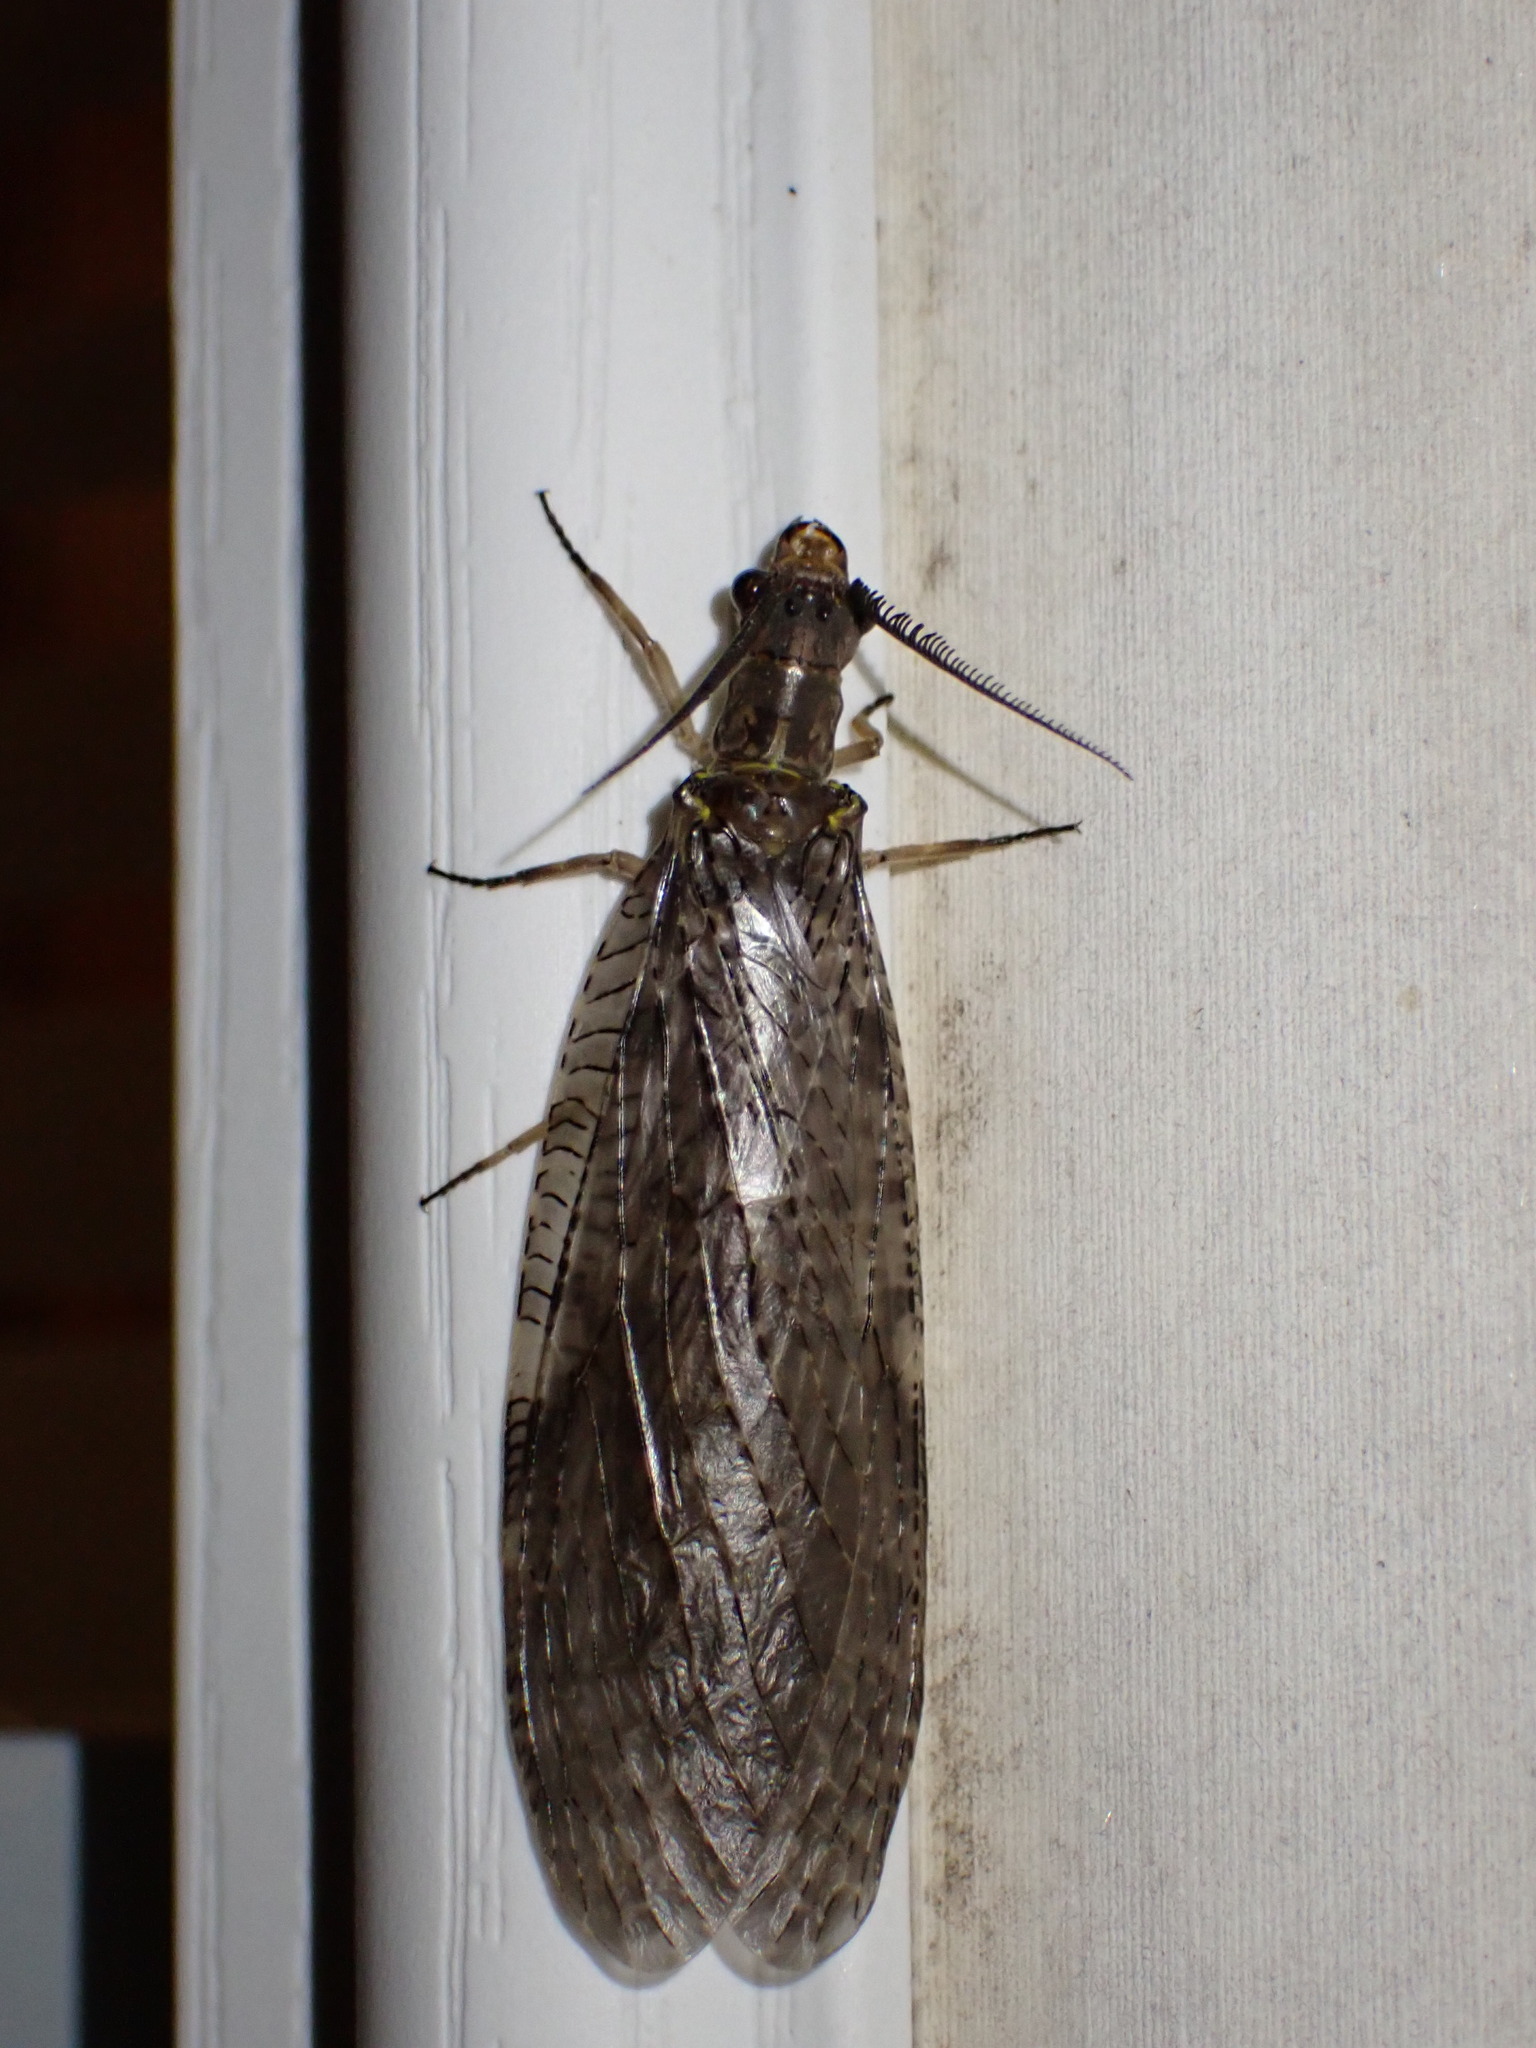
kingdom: Animalia
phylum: Arthropoda
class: Insecta
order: Megaloptera
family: Corydalidae
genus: Chauliodes
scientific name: Chauliodes pectinicornis
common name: Summer fishfly
